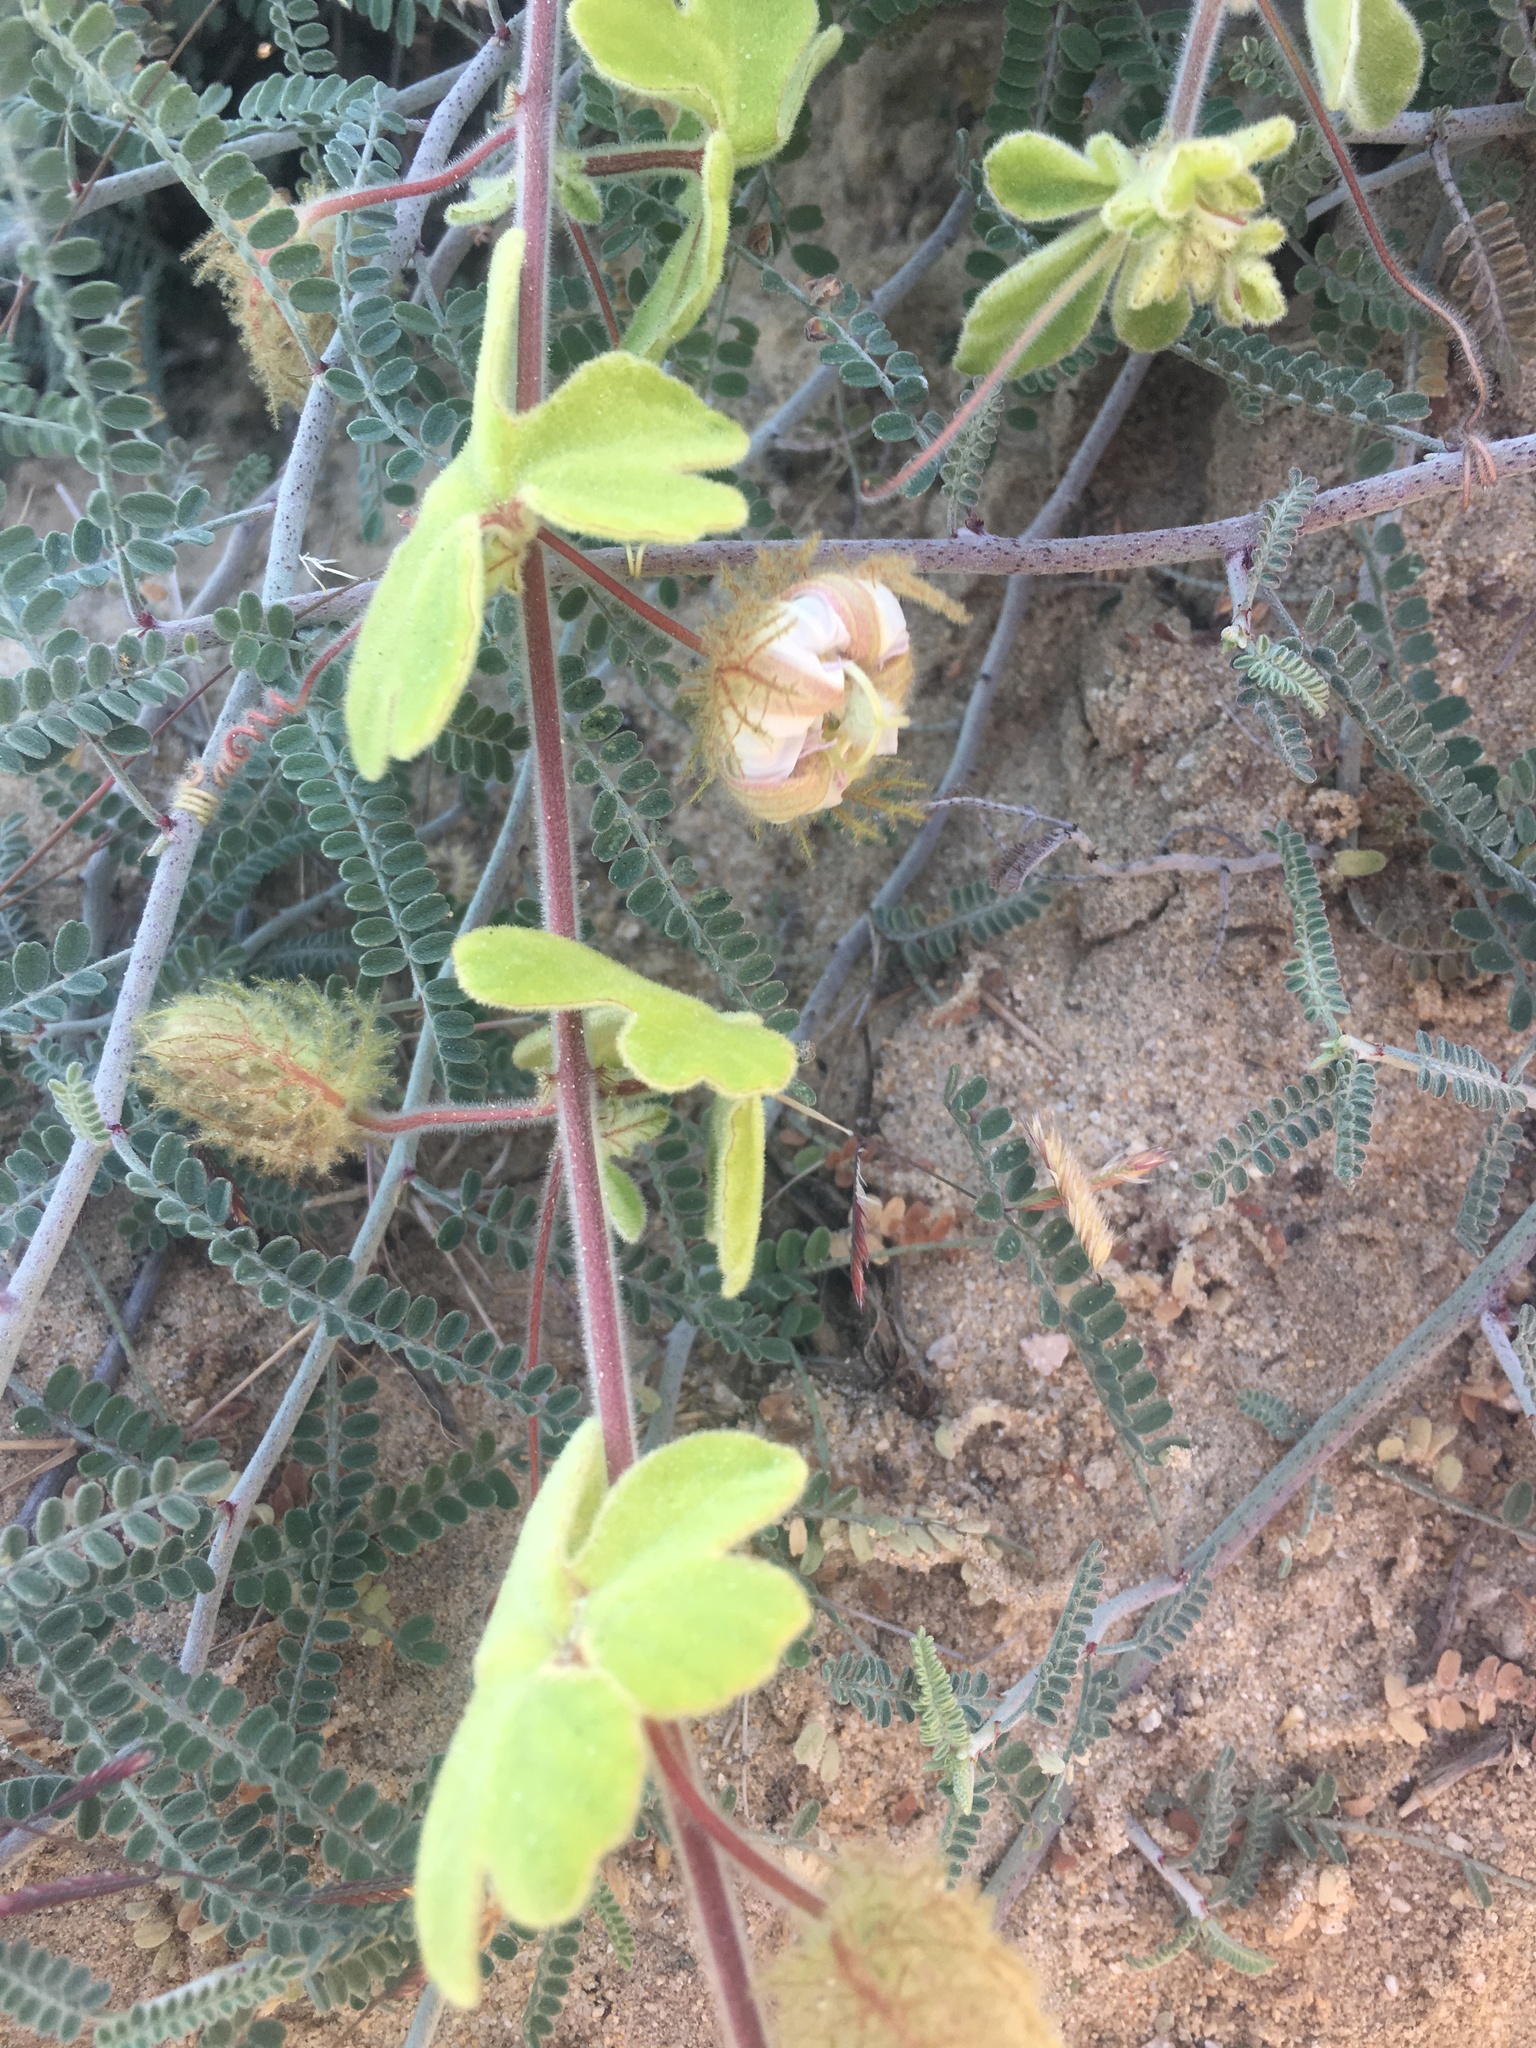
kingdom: Plantae
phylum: Tracheophyta
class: Magnoliopsida
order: Malpighiales
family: Passifloraceae
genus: Passiflora
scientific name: Passiflora pentaschista
